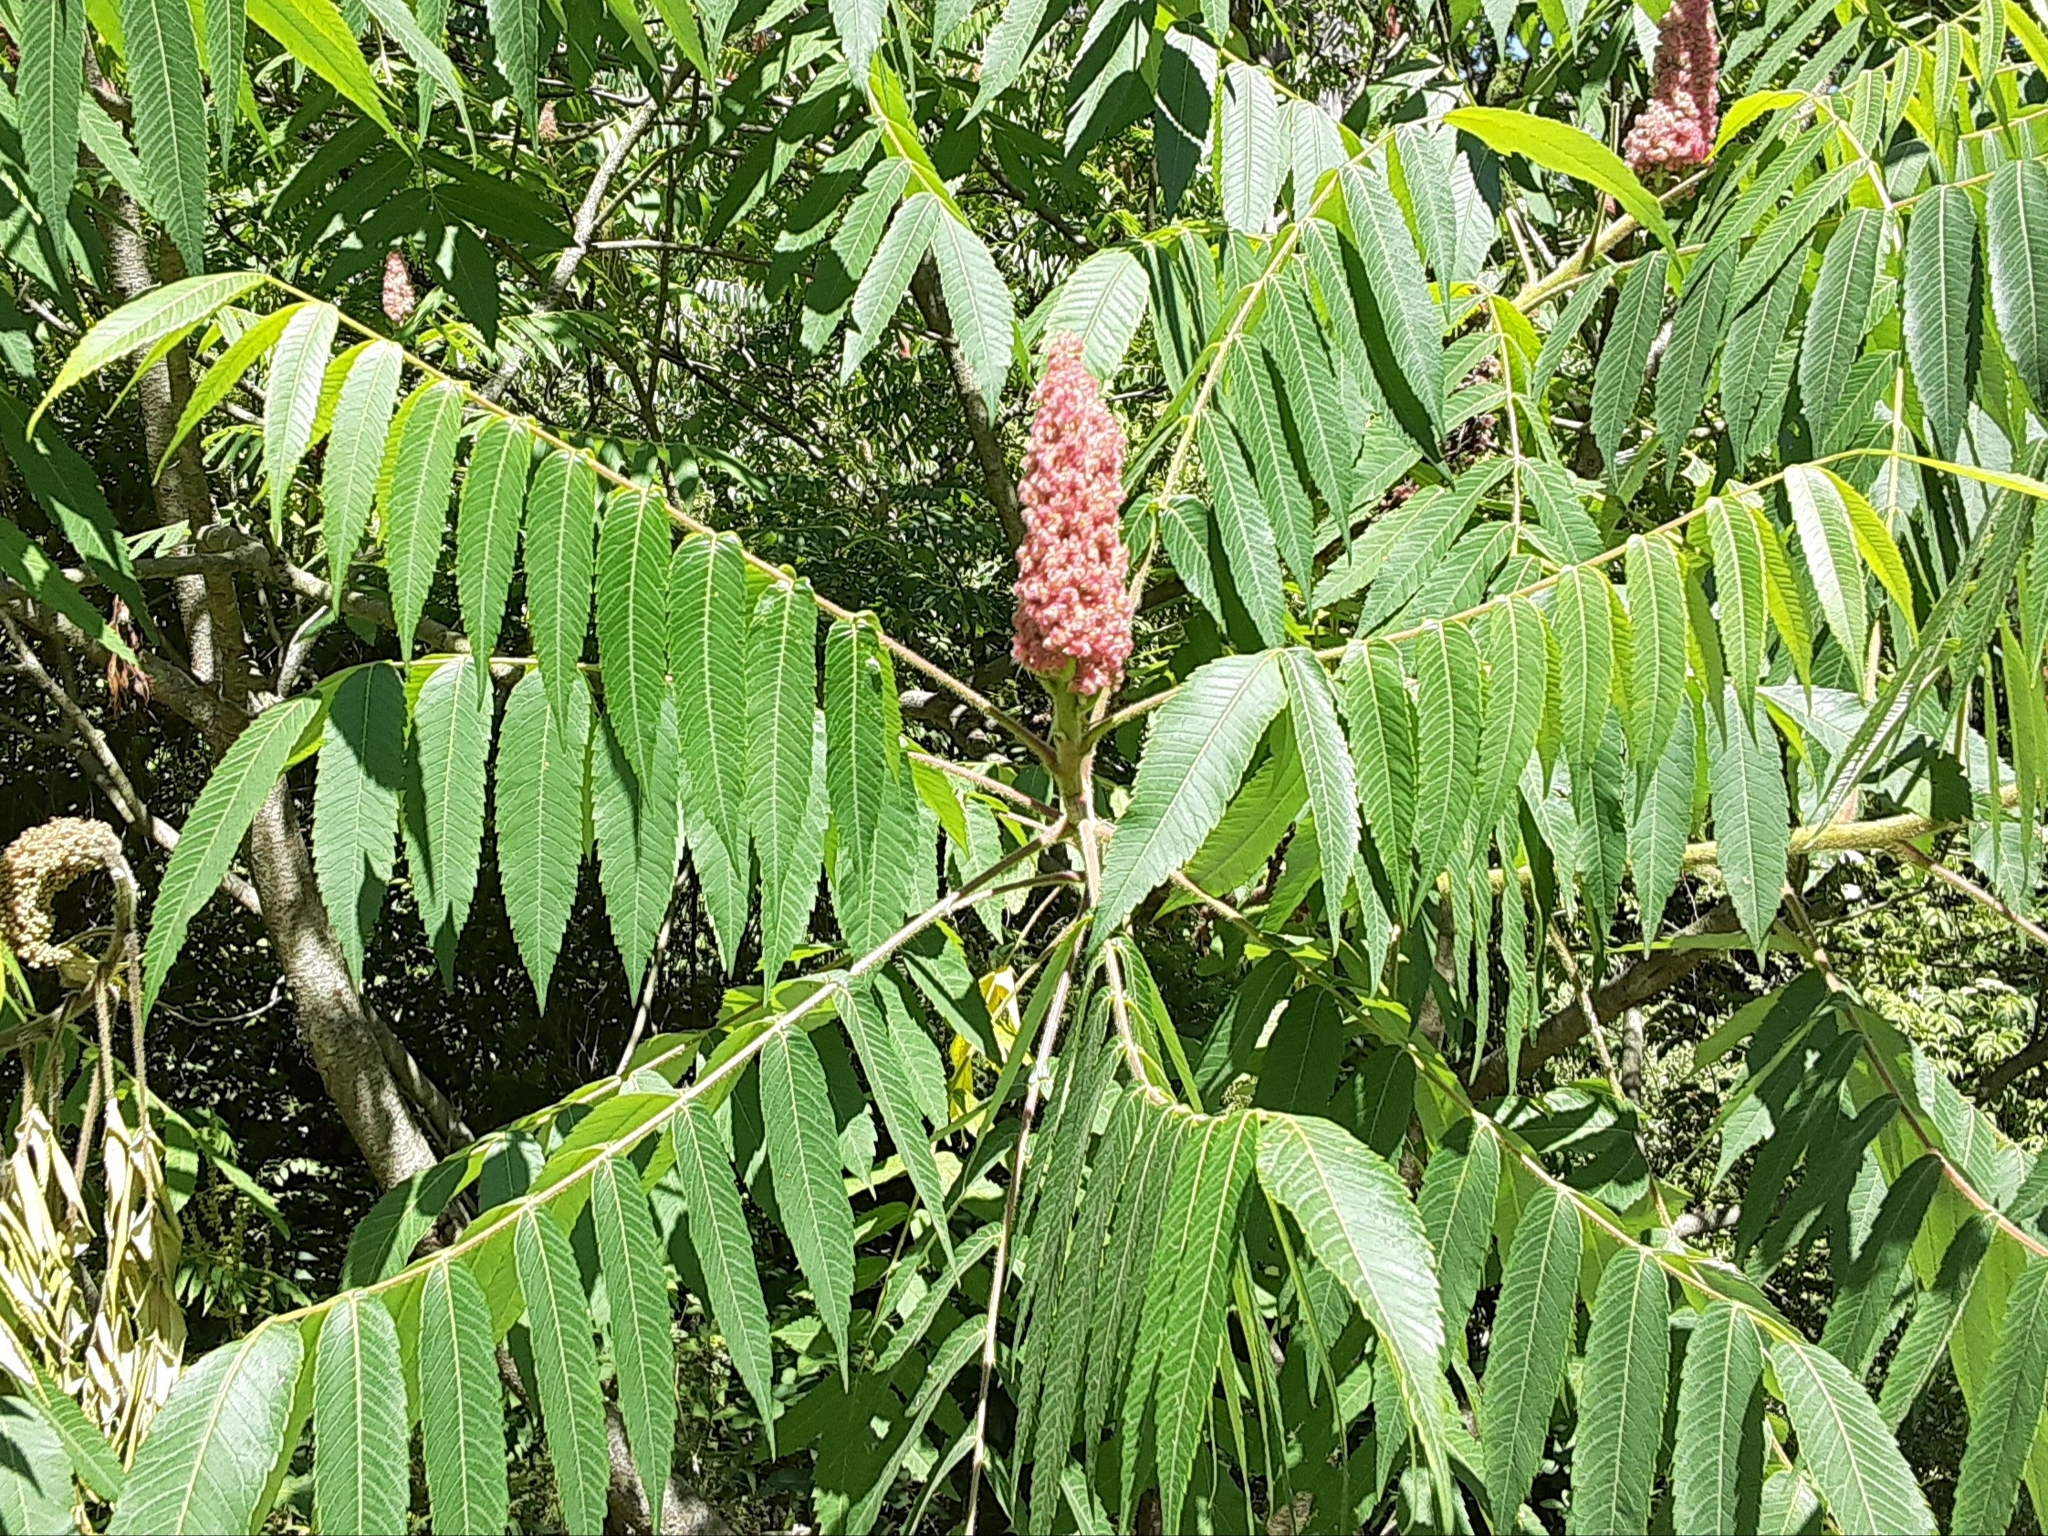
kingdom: Plantae
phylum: Tracheophyta
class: Magnoliopsida
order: Sapindales
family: Anacardiaceae
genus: Rhus
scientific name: Rhus typhina
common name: Staghorn sumac
